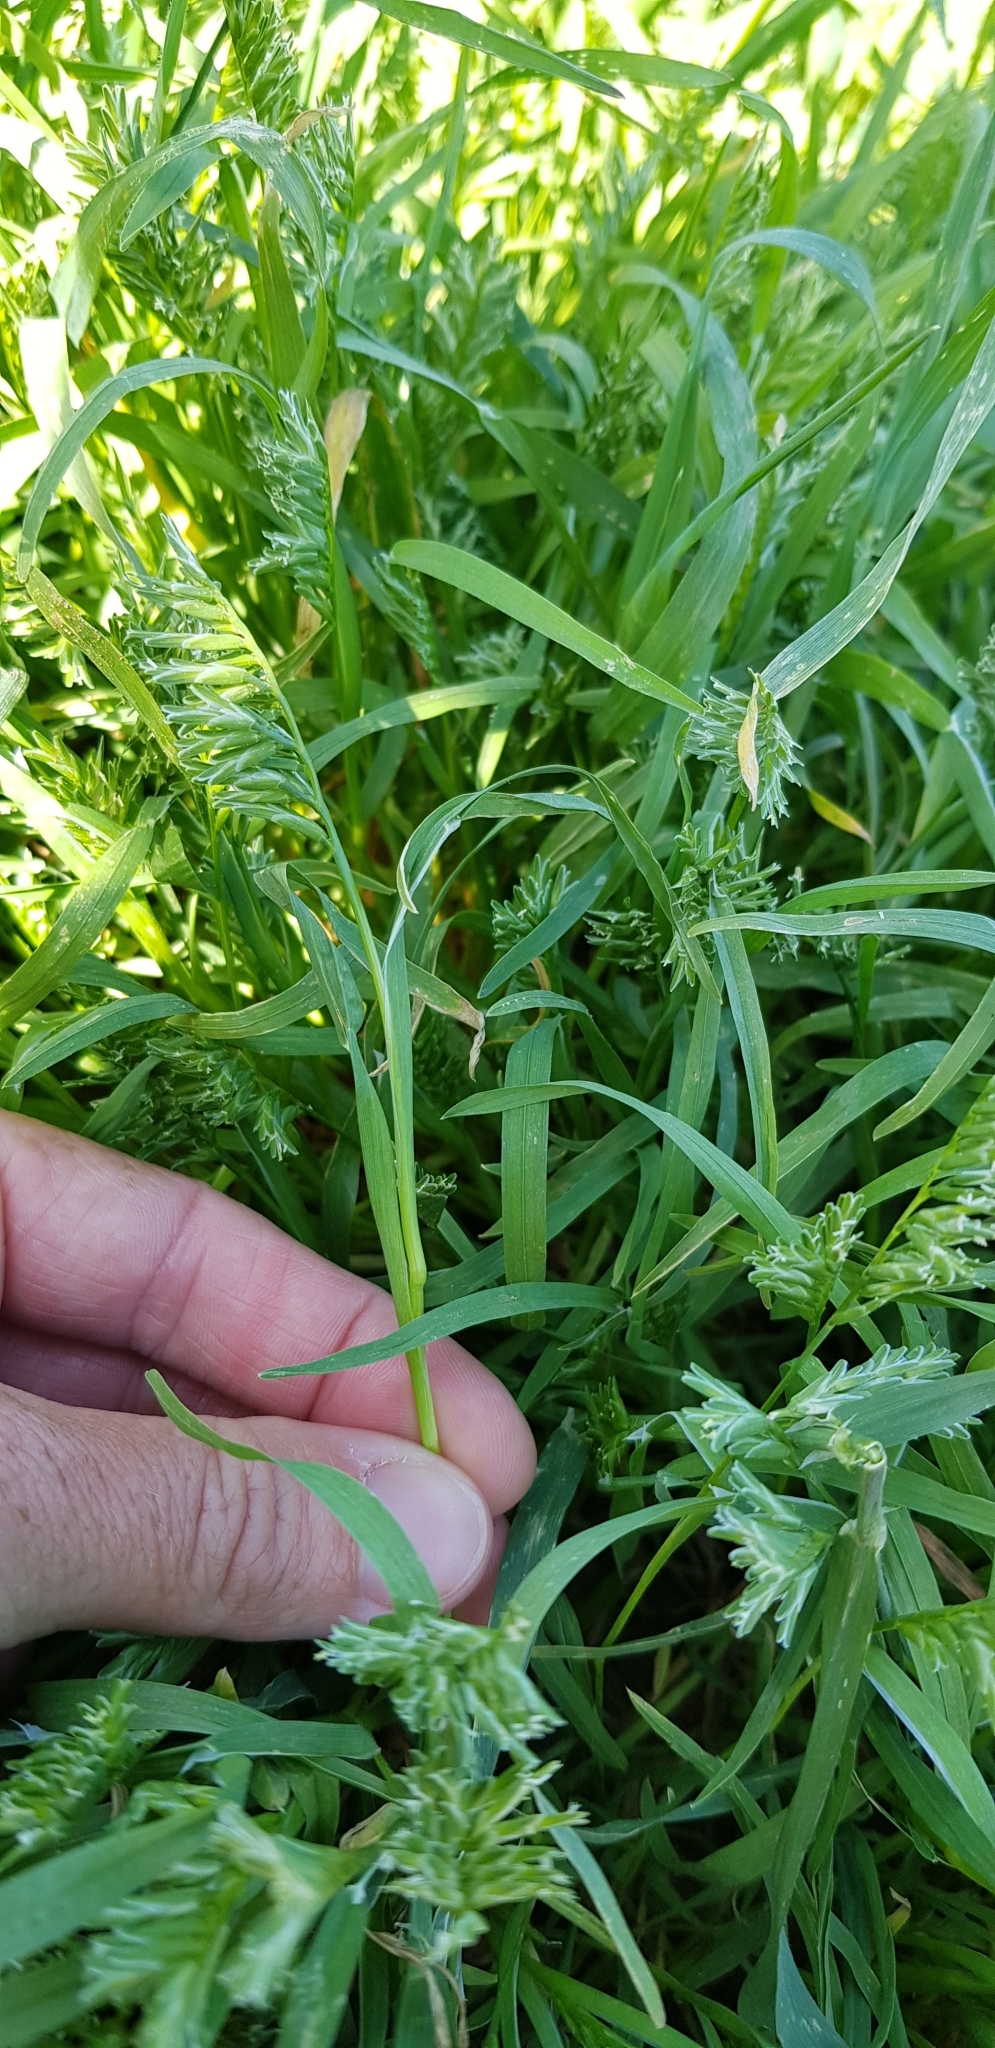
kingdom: Plantae
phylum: Tracheophyta
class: Liliopsida
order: Poales
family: Poaceae
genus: Sclerochloa
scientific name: Sclerochloa dura
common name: Common hardgrass
